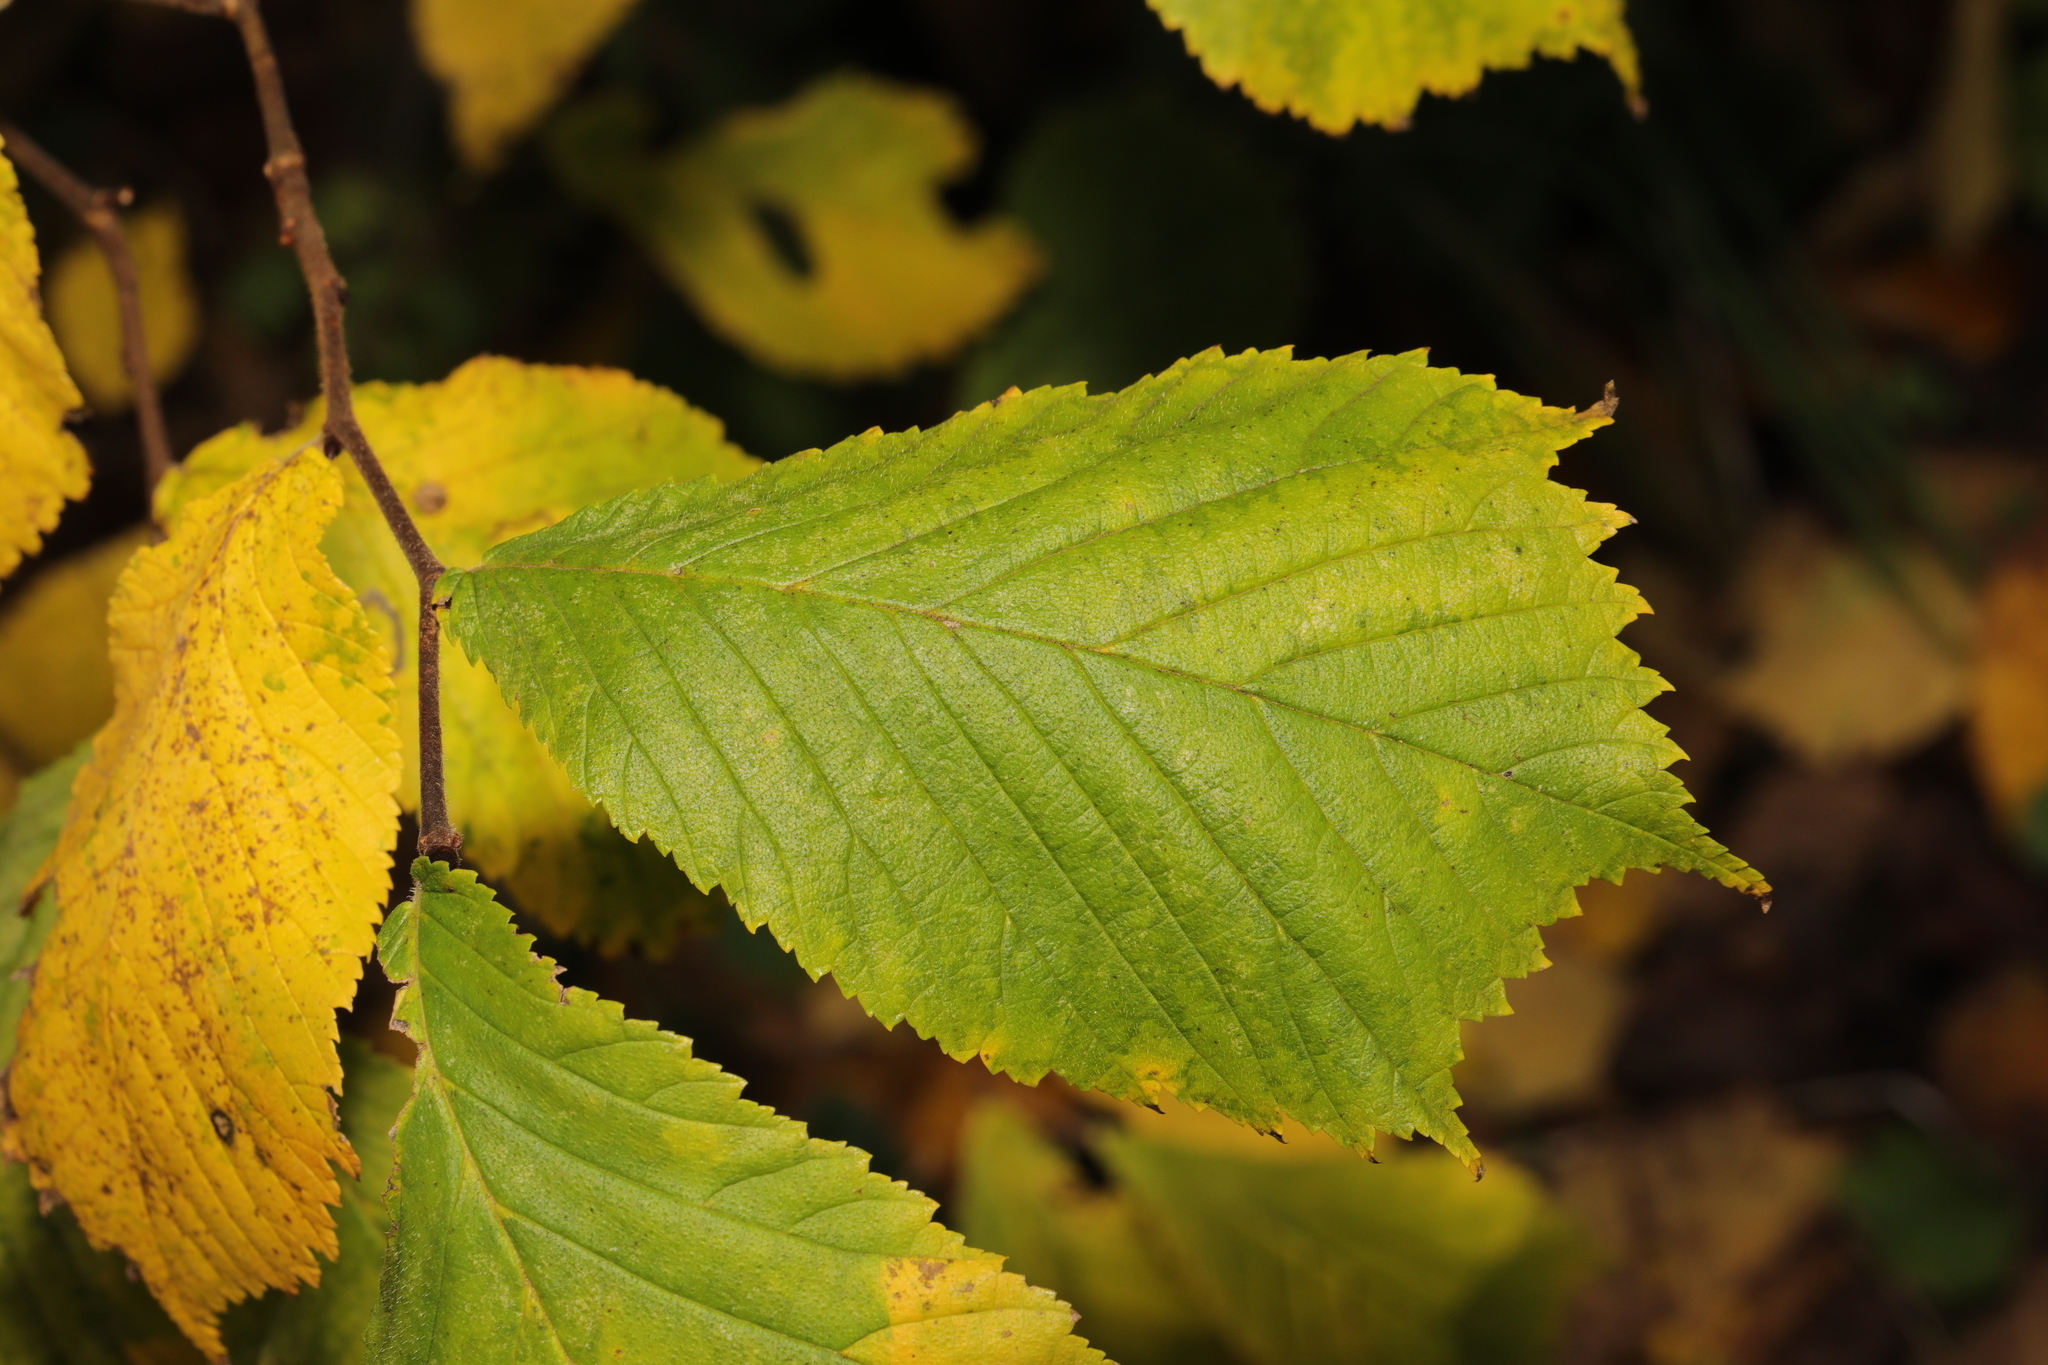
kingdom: Plantae
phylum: Tracheophyta
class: Magnoliopsida
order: Rosales
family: Ulmaceae
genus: Ulmus
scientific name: Ulmus glabra
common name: Wych elm
